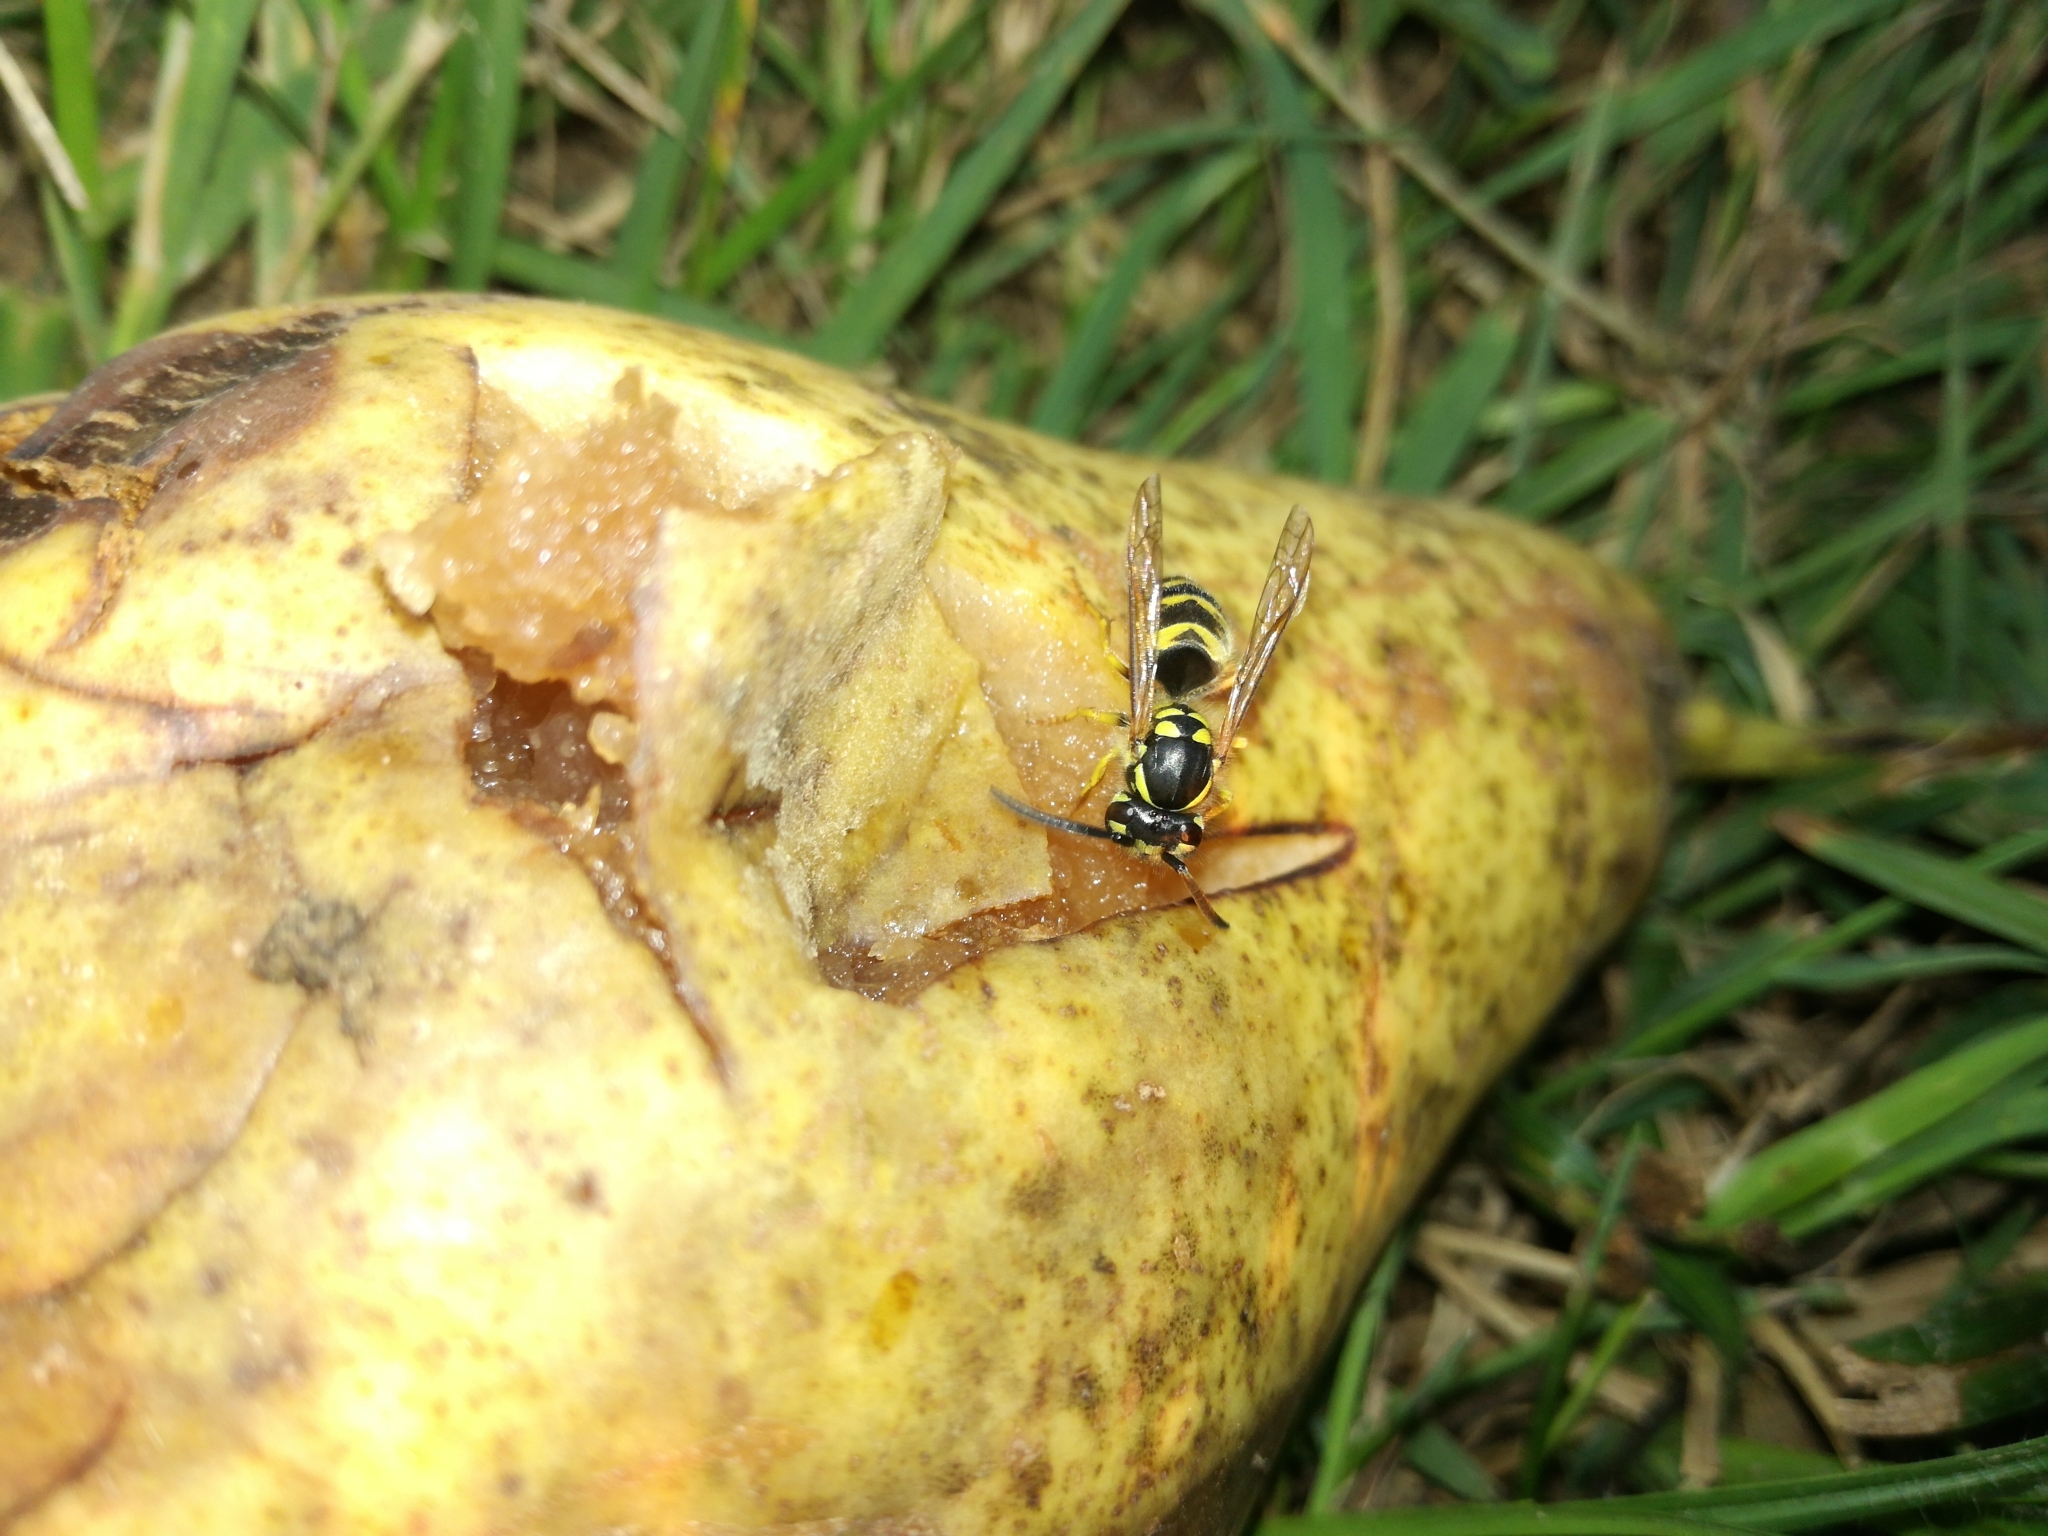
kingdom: Animalia
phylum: Arthropoda
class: Insecta
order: Hymenoptera
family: Vespidae
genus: Vespula
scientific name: Vespula vulgaris
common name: Common wasp
